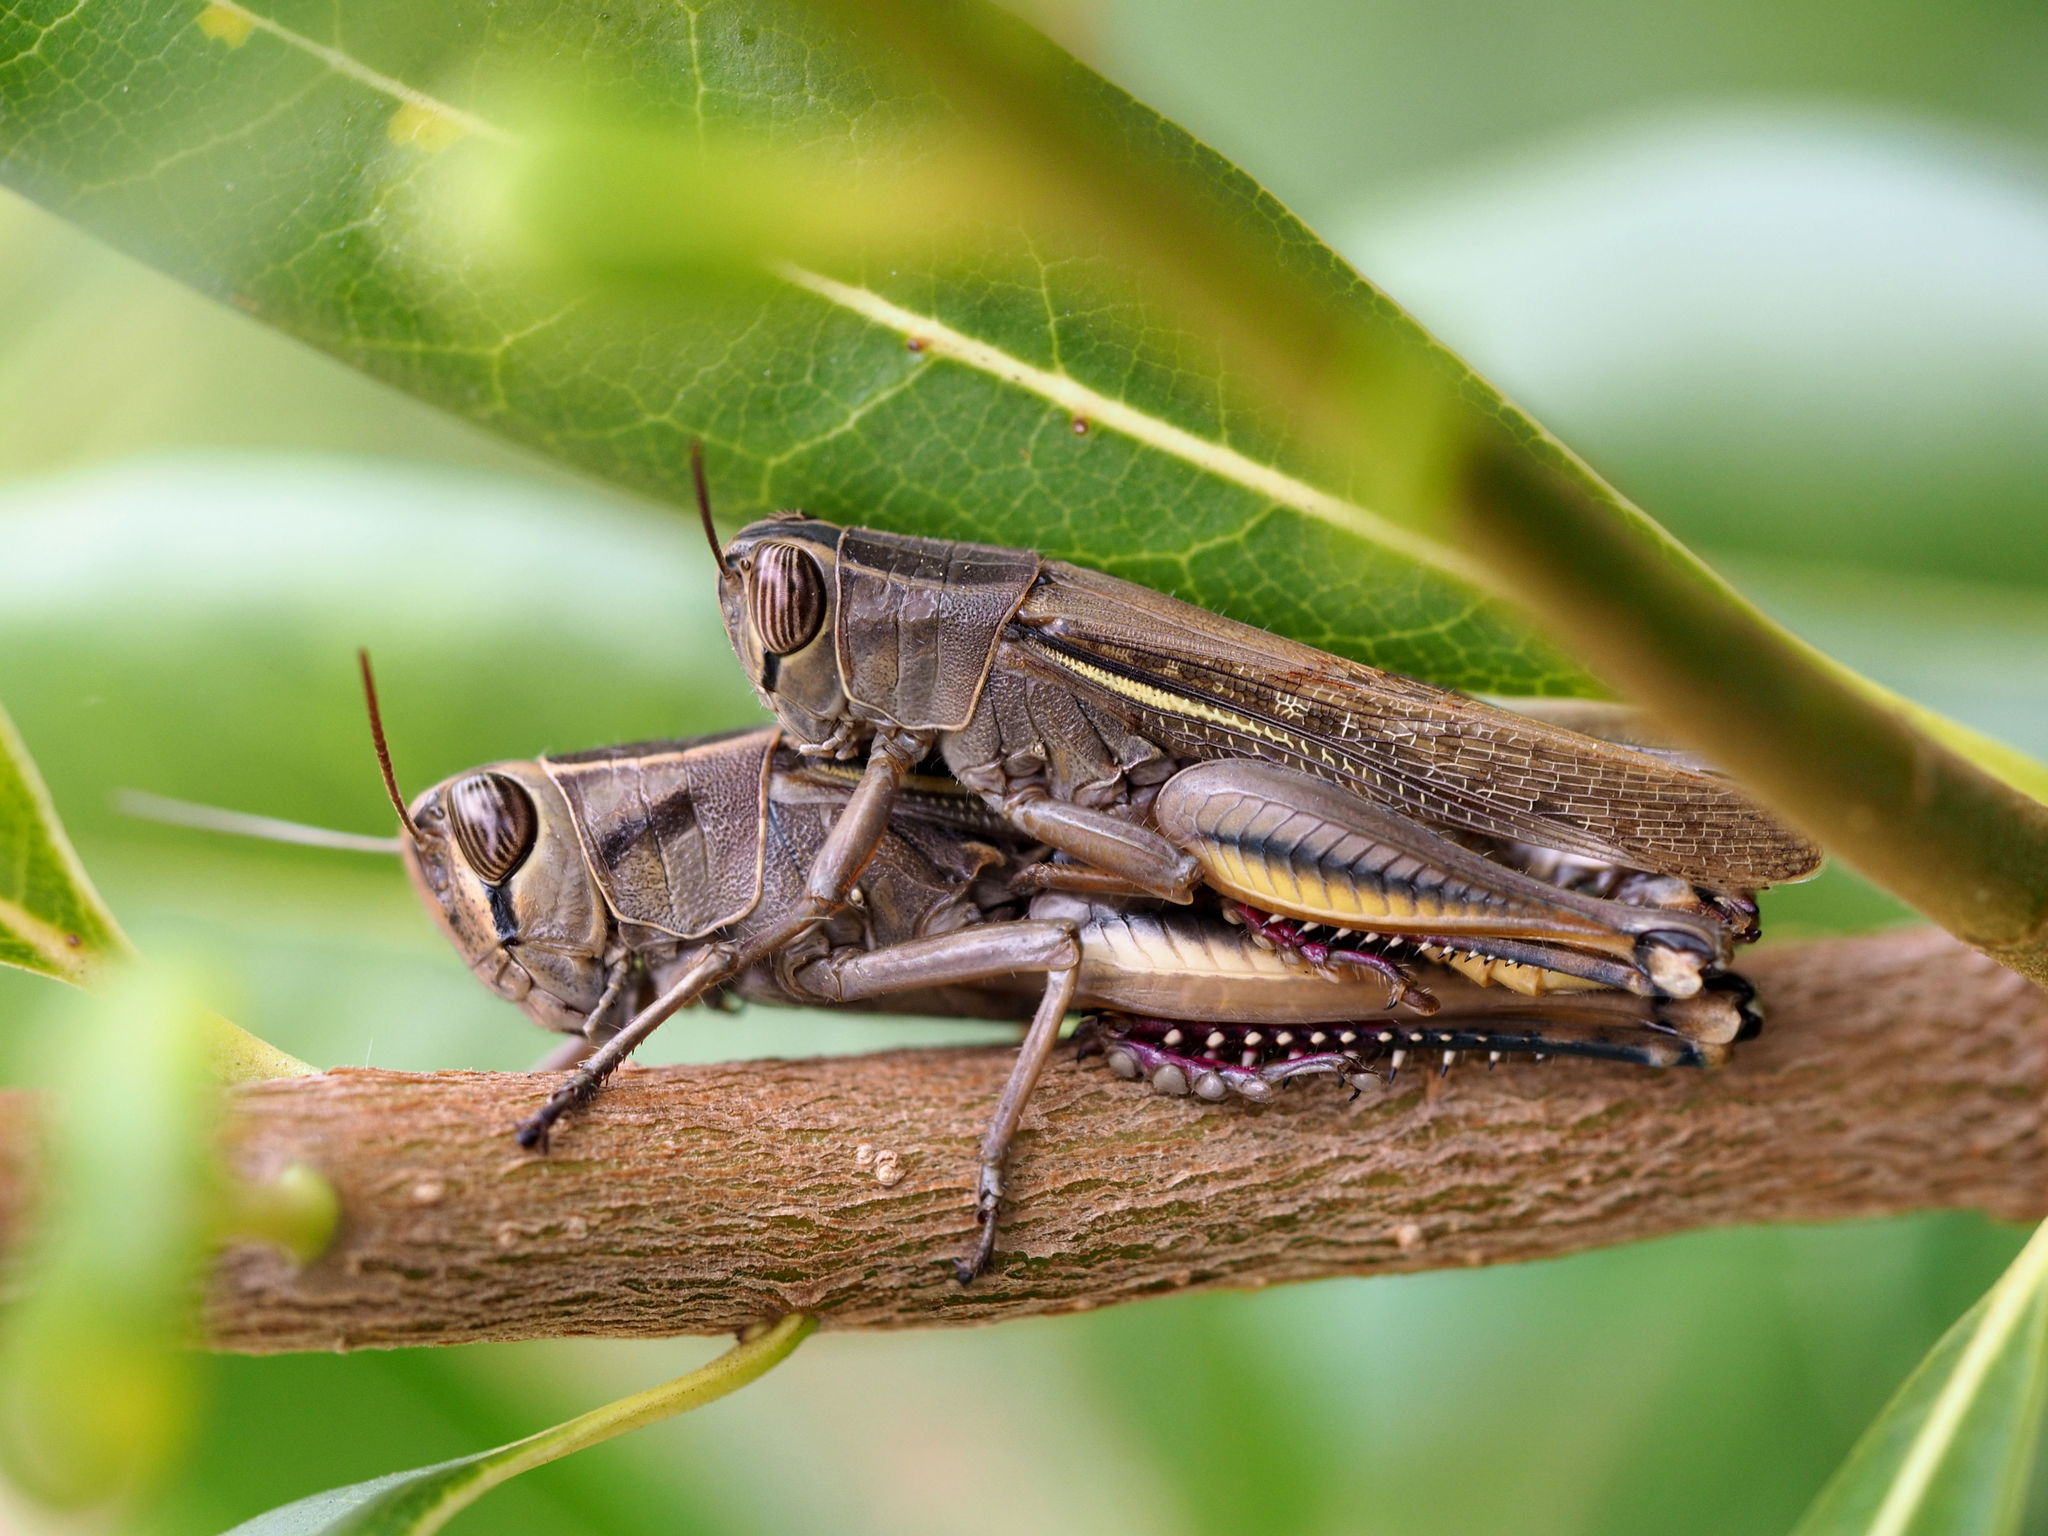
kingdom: Animalia
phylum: Arthropoda
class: Insecta
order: Orthoptera
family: Acrididae
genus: Eyprepocnemis
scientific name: Eyprepocnemis plorans
